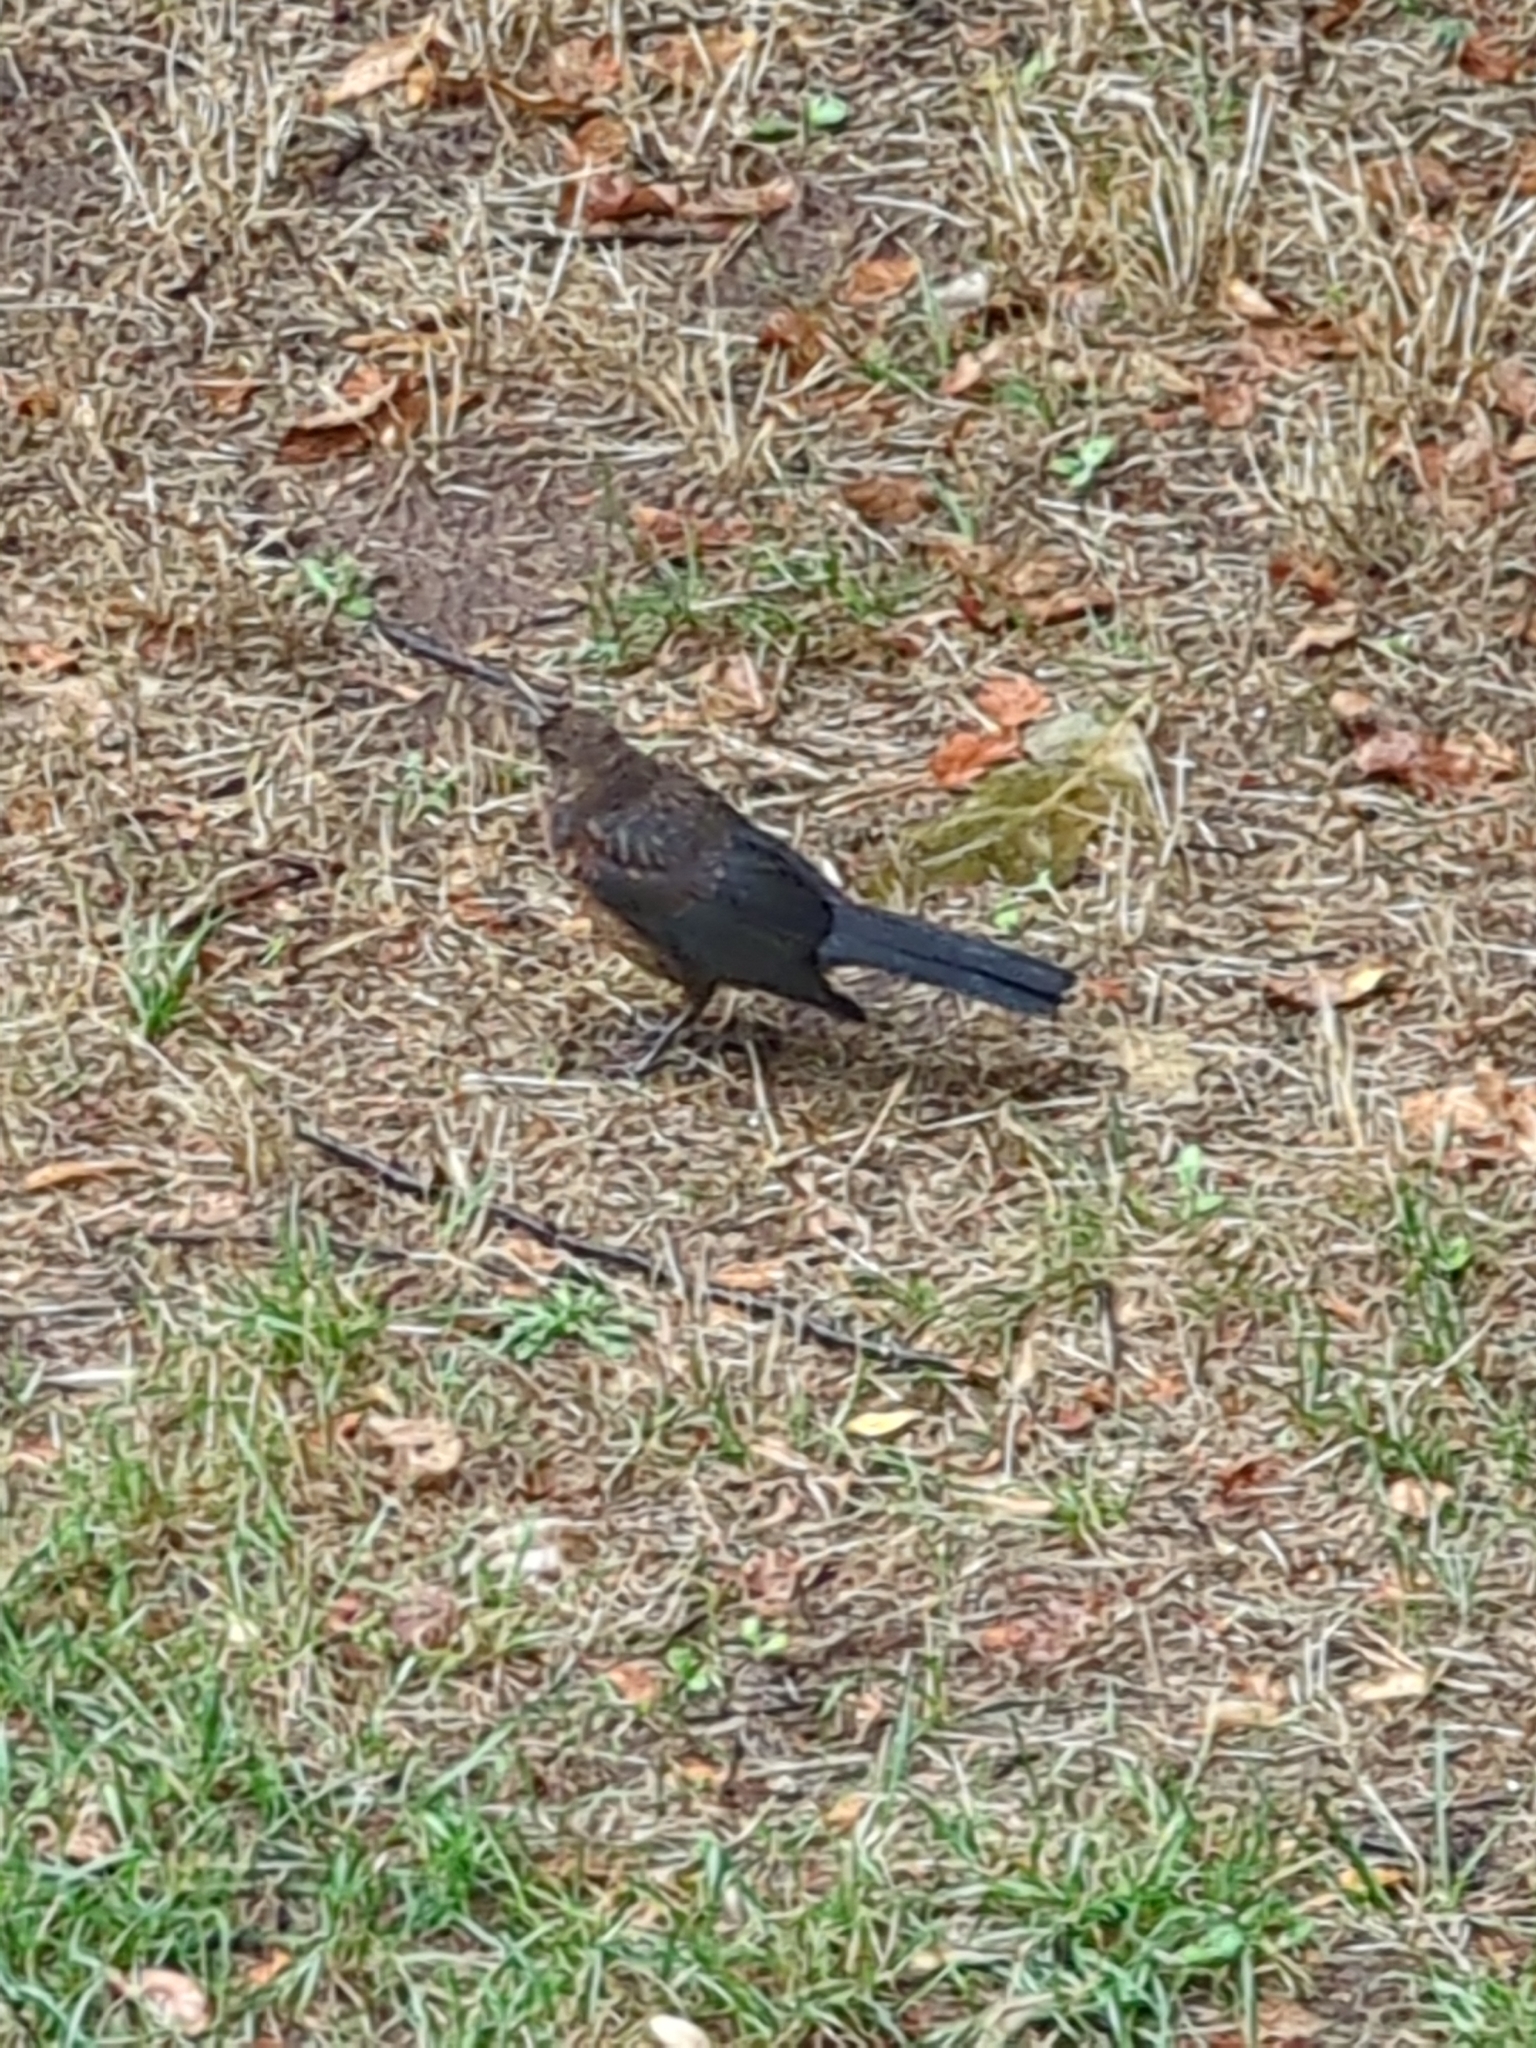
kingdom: Animalia
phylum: Chordata
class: Aves
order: Passeriformes
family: Turdidae
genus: Turdus
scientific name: Turdus merula
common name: Common blackbird
